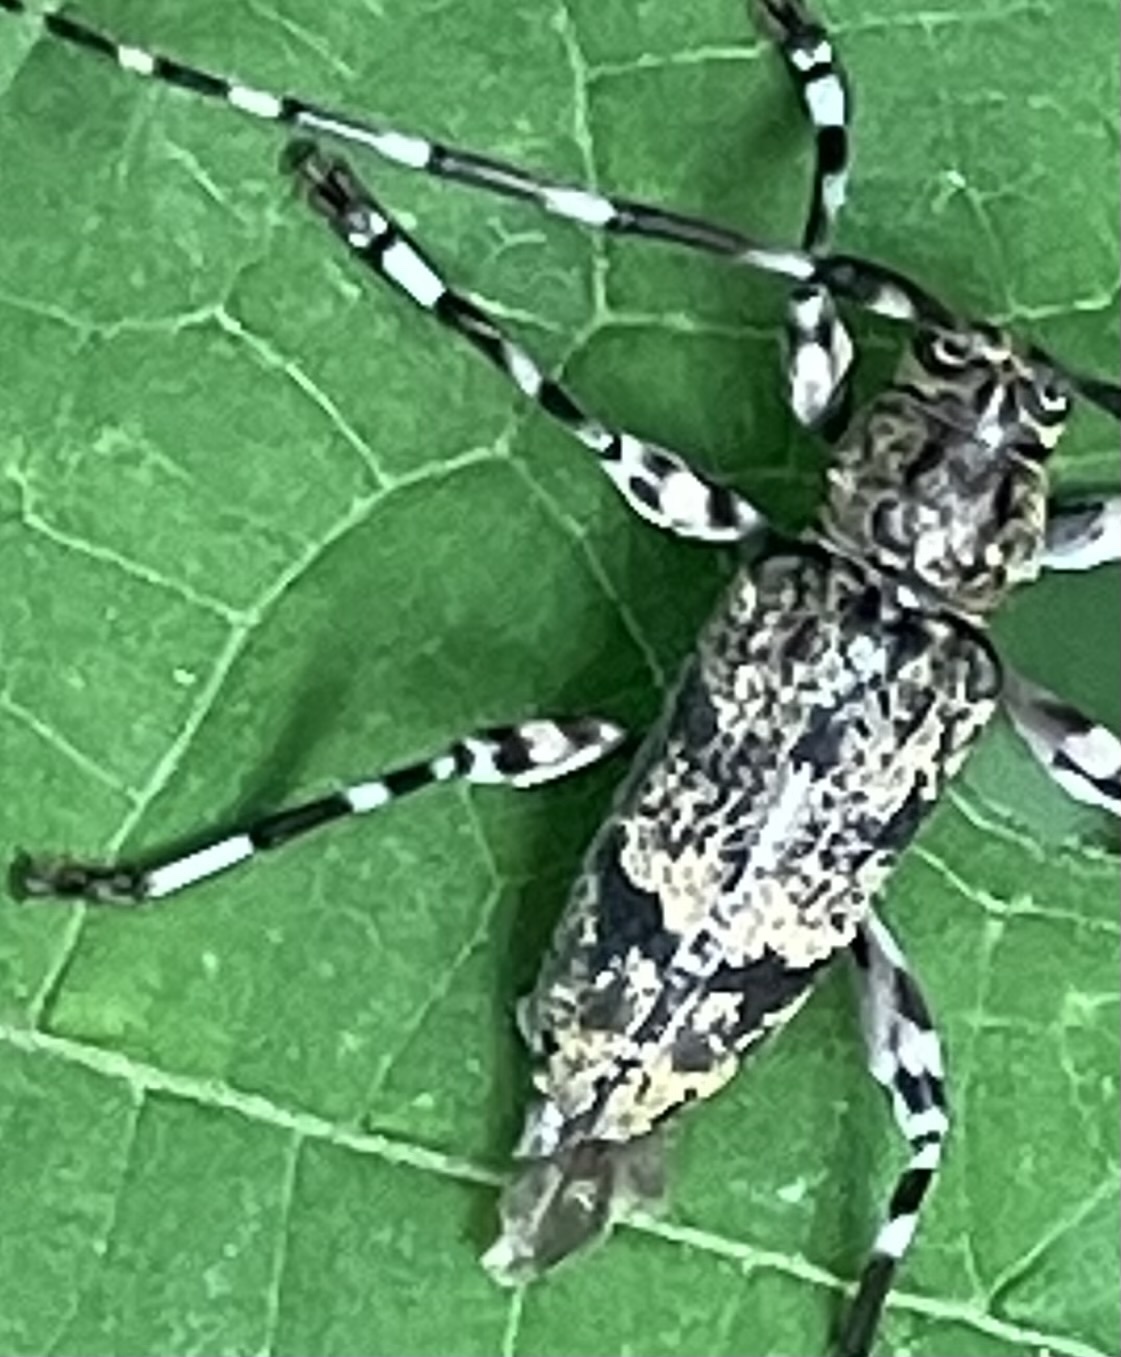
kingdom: Animalia
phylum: Arthropoda
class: Insecta
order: Coleoptera
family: Cerambycidae
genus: Graphisurus
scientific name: Graphisurus fasciatus
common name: Banded graphisurus
